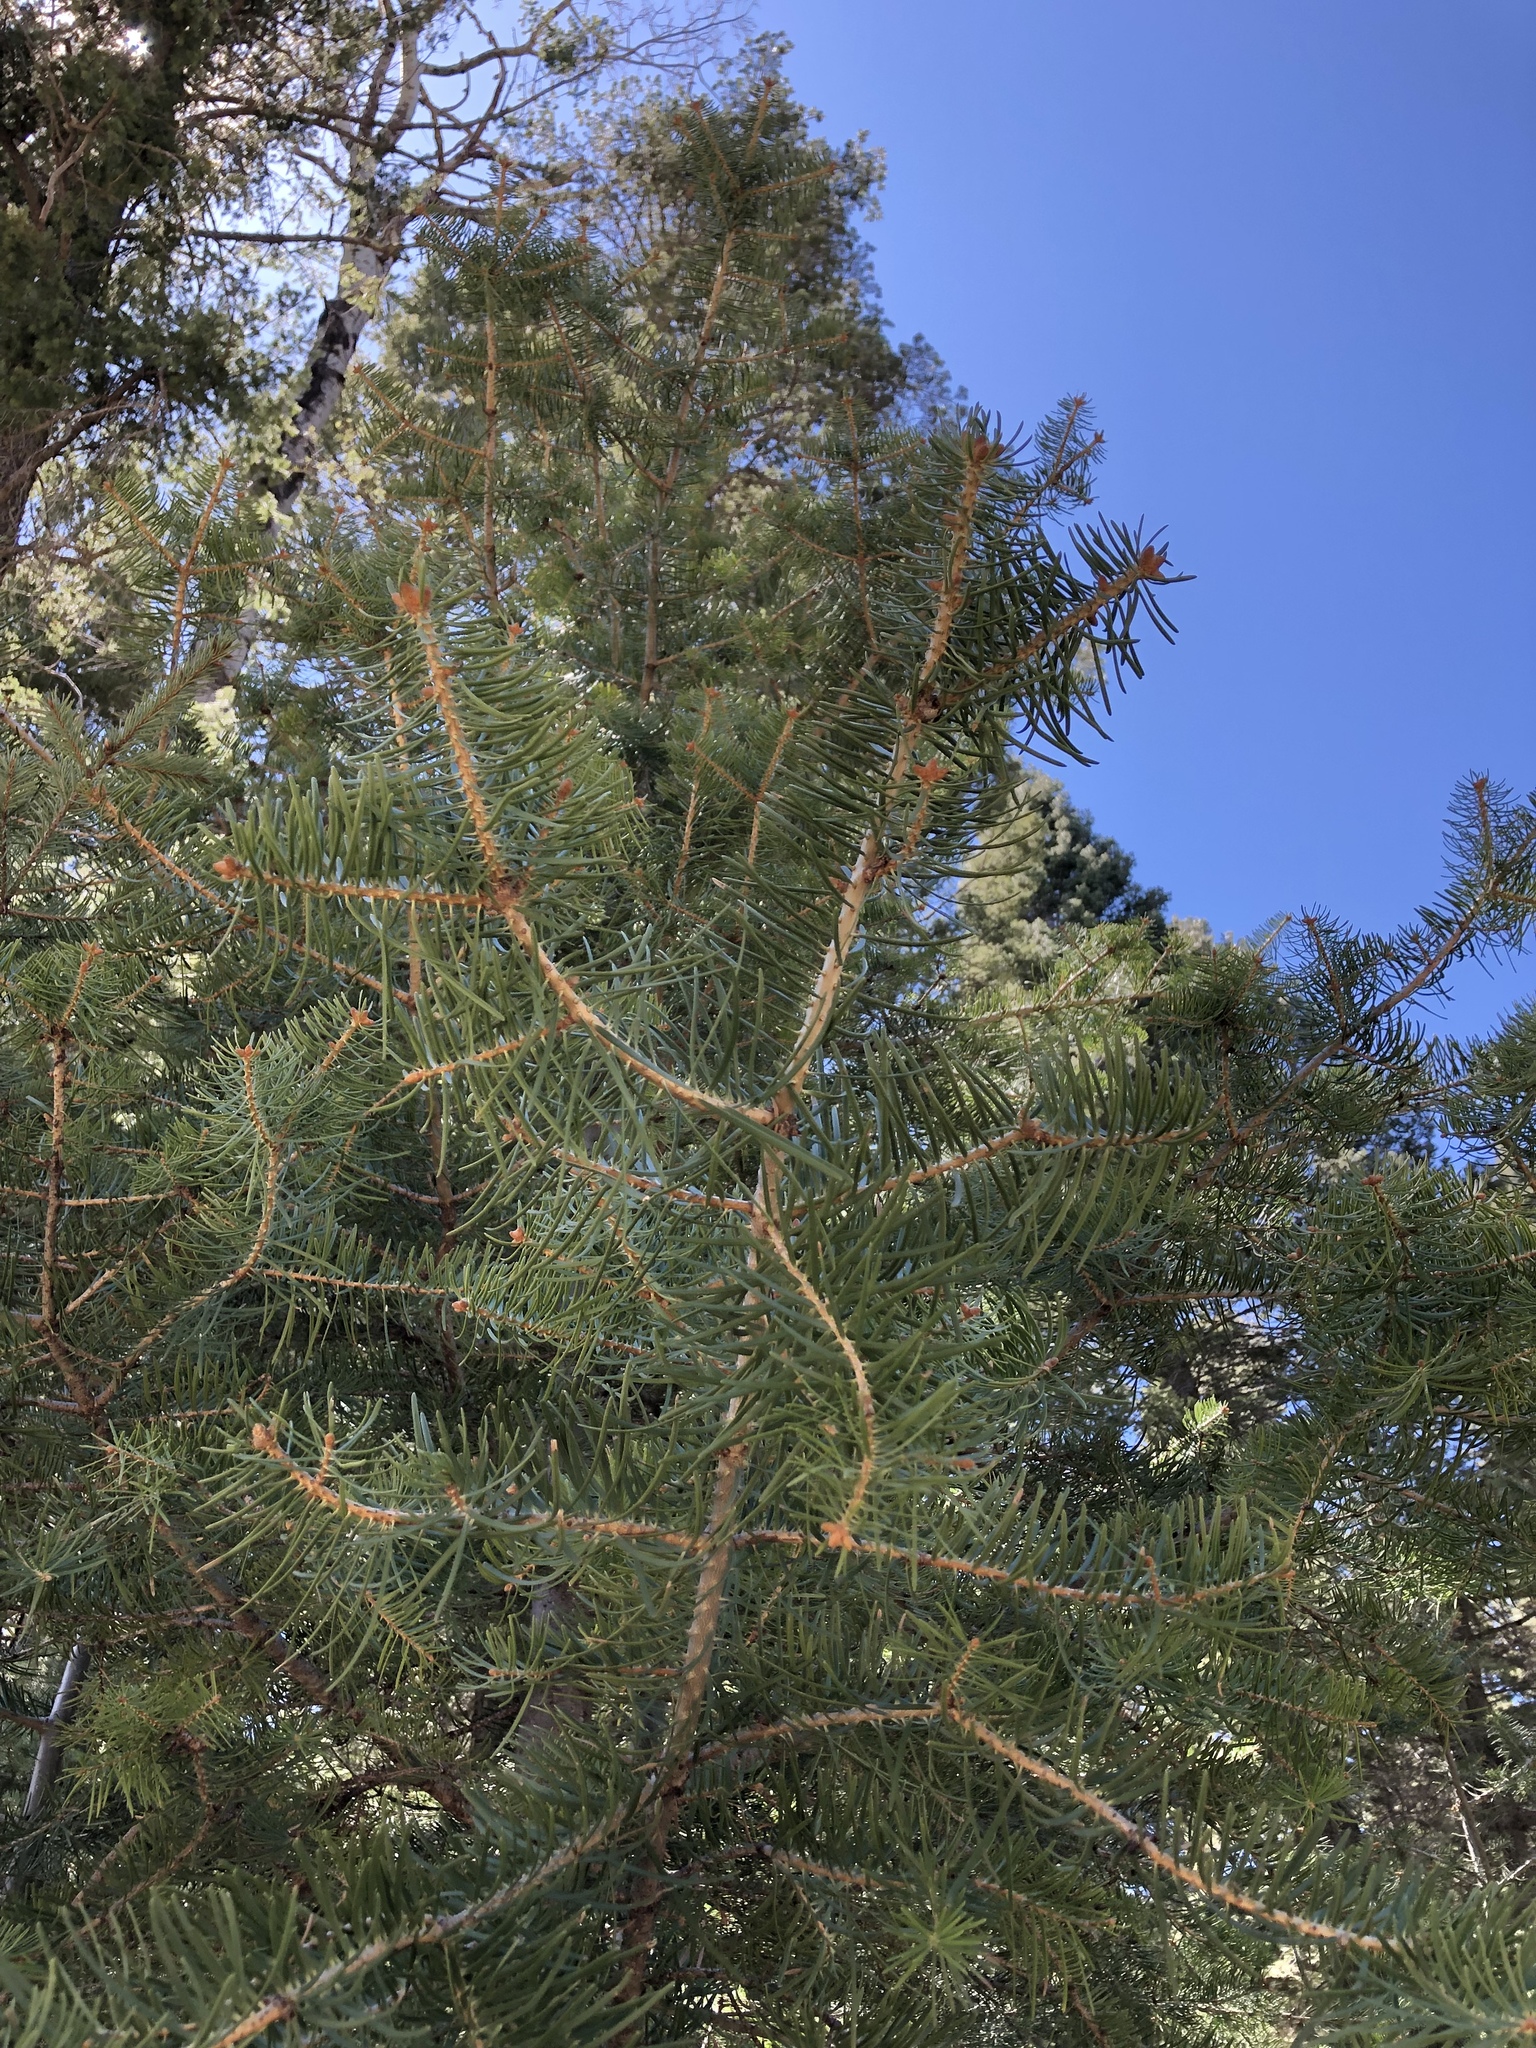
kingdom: Plantae
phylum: Tracheophyta
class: Pinopsida
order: Pinales
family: Pinaceae
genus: Abies
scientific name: Abies concolor
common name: Colorado fir
